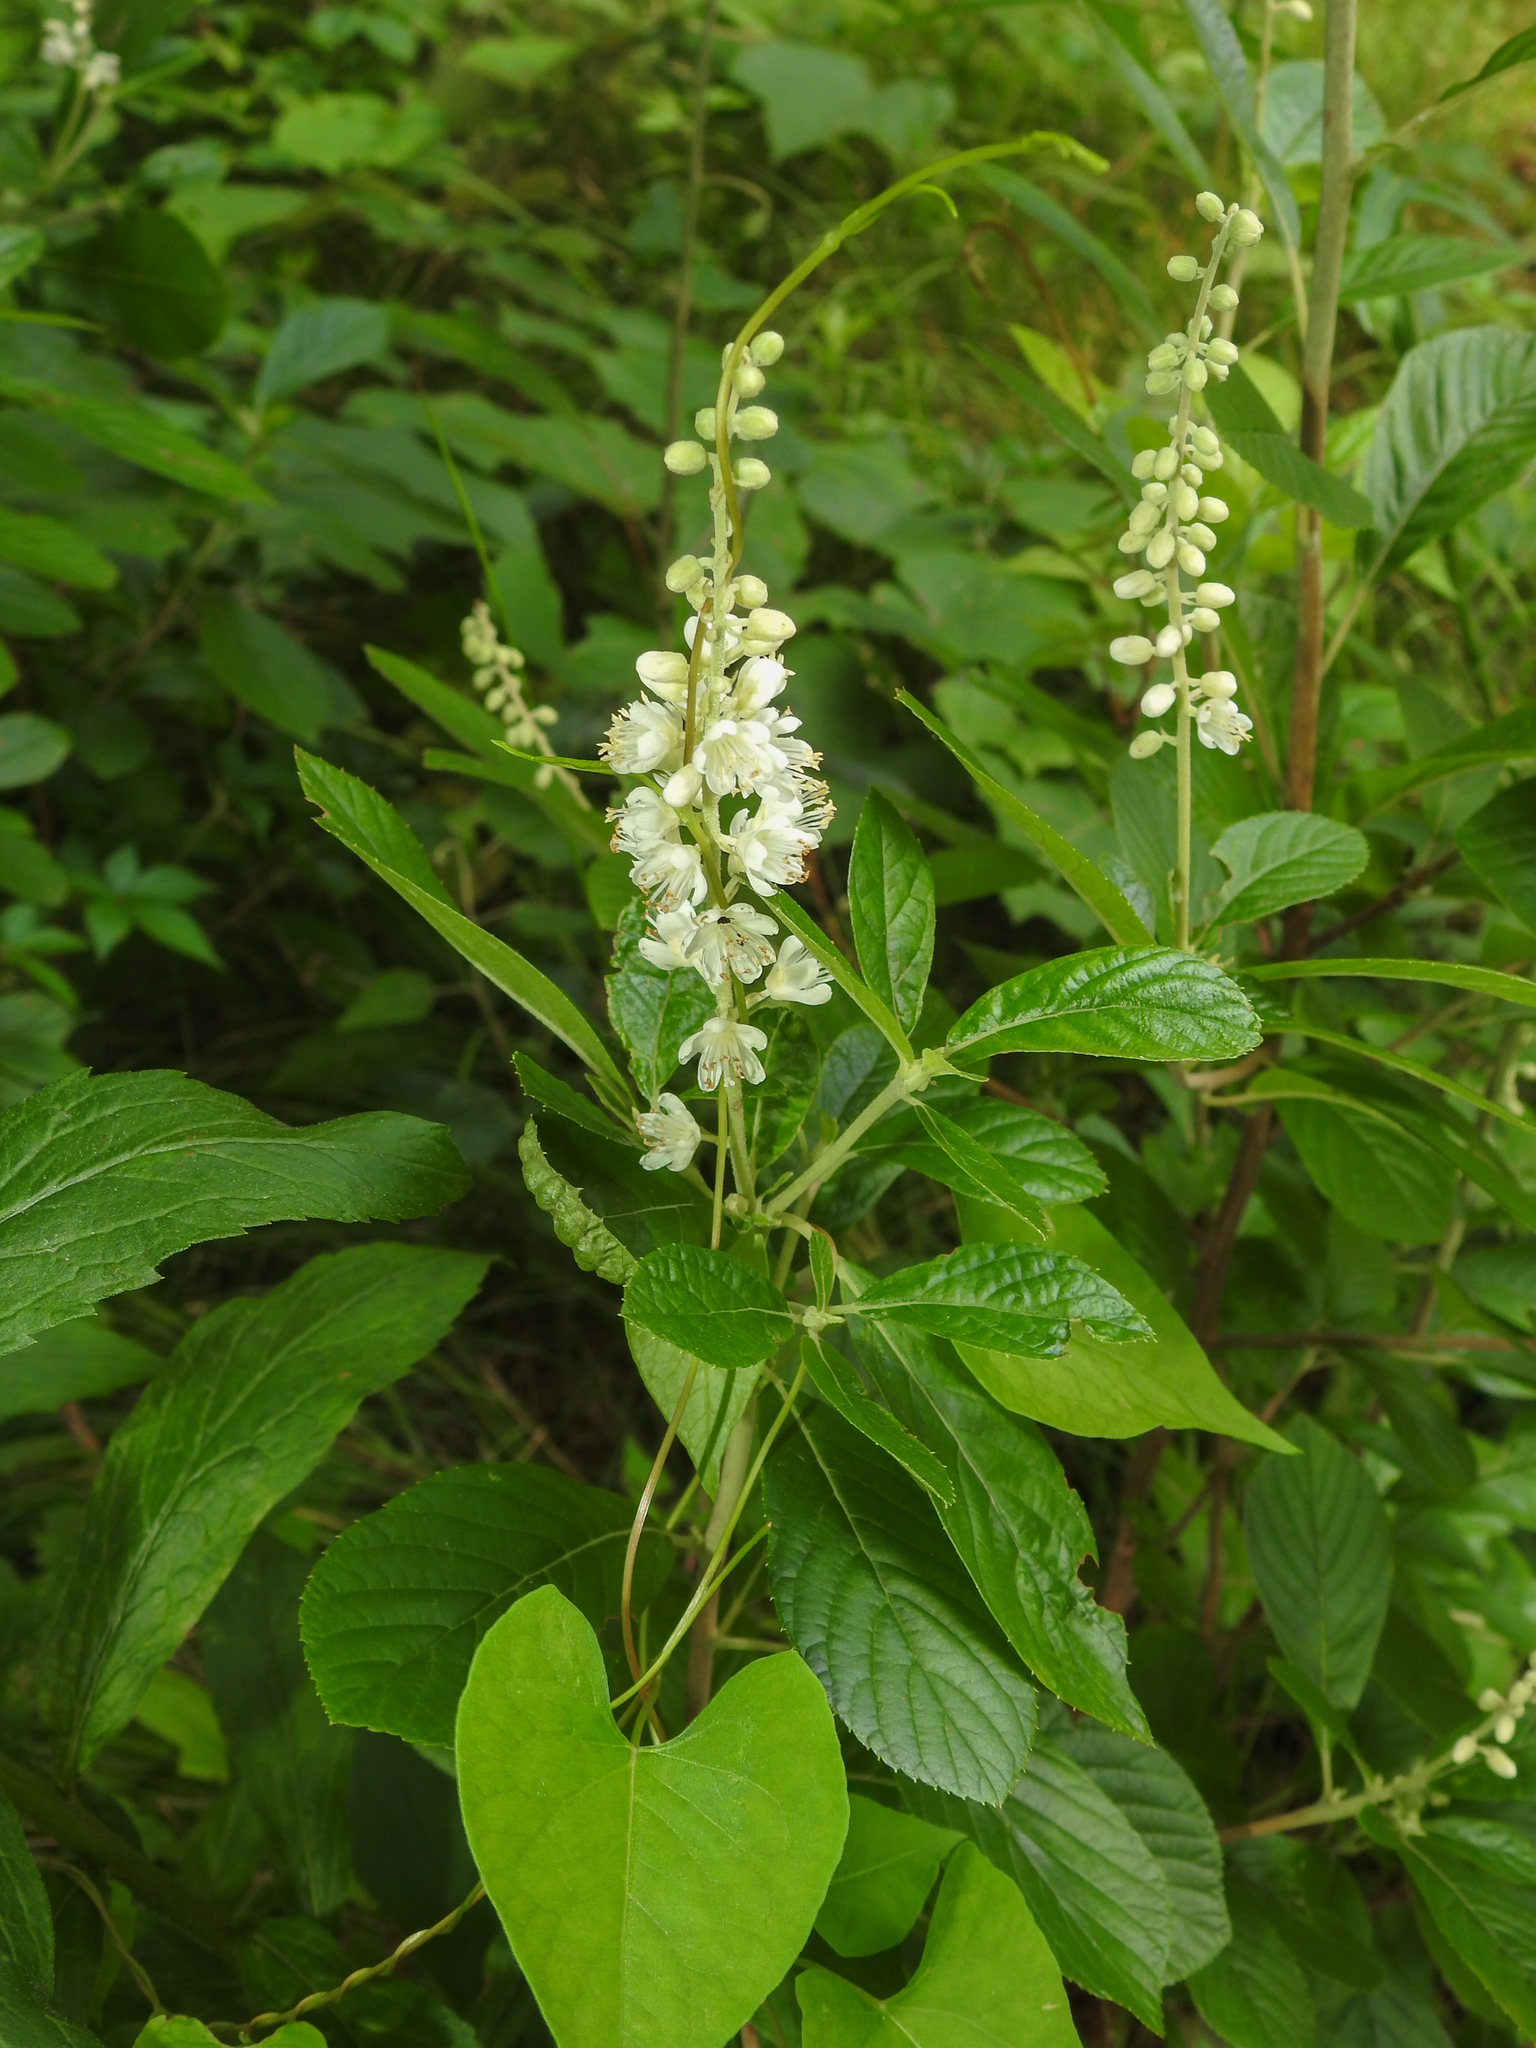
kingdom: Plantae
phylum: Tracheophyta
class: Magnoliopsida
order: Ericales
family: Clethraceae
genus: Clethra
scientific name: Clethra alnifolia
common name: Sweet pepperbush
